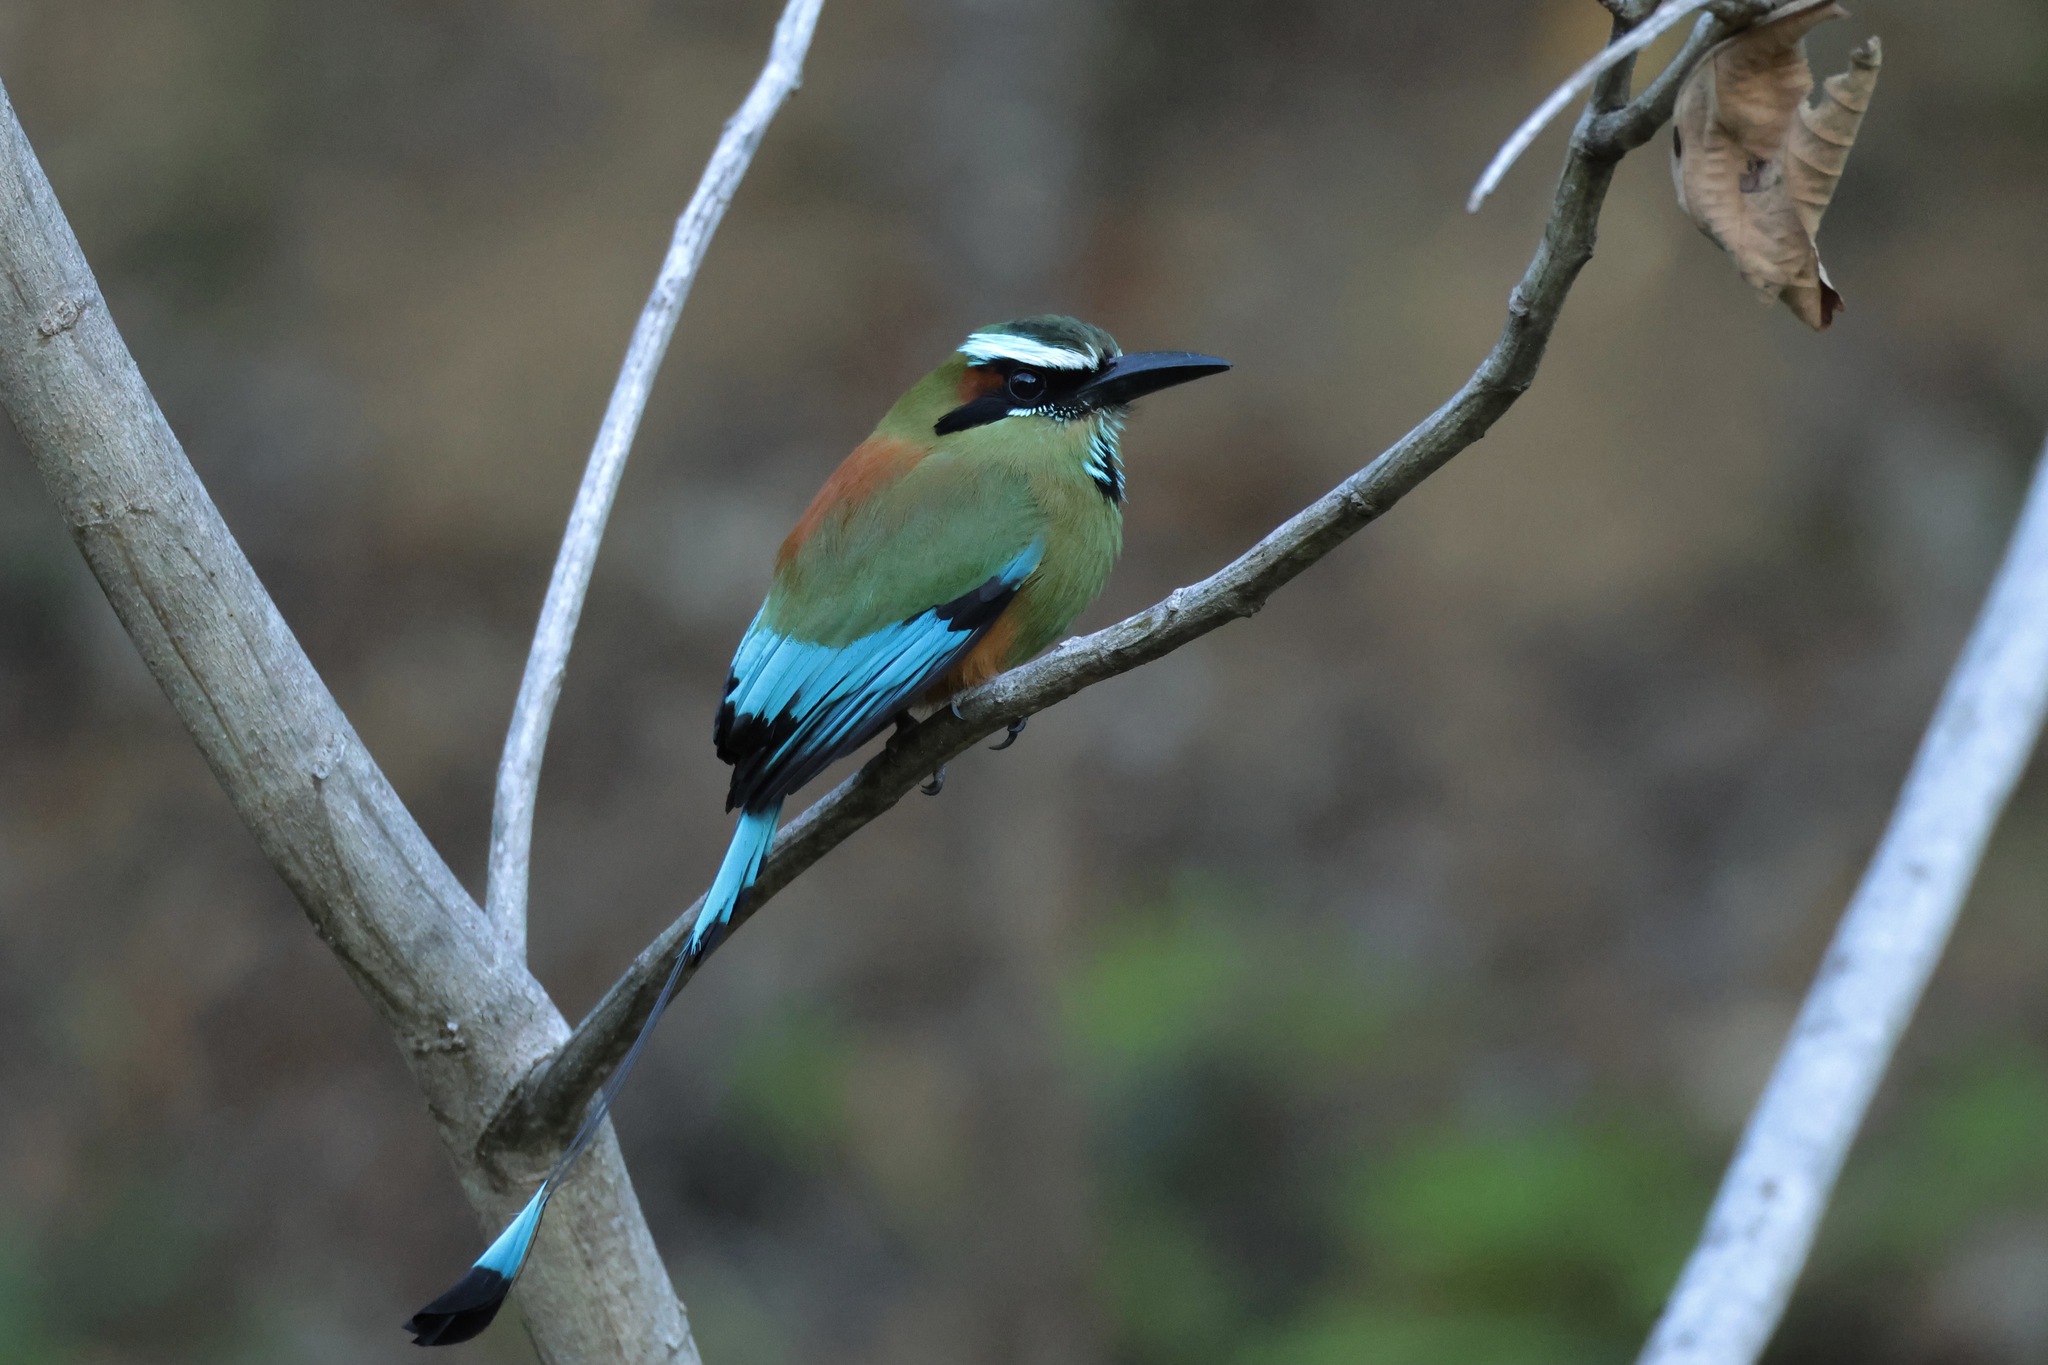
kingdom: Animalia
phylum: Chordata
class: Aves
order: Coraciiformes
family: Momotidae
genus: Eumomota
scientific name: Eumomota superciliosa
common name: Turquoise-browed motmot
